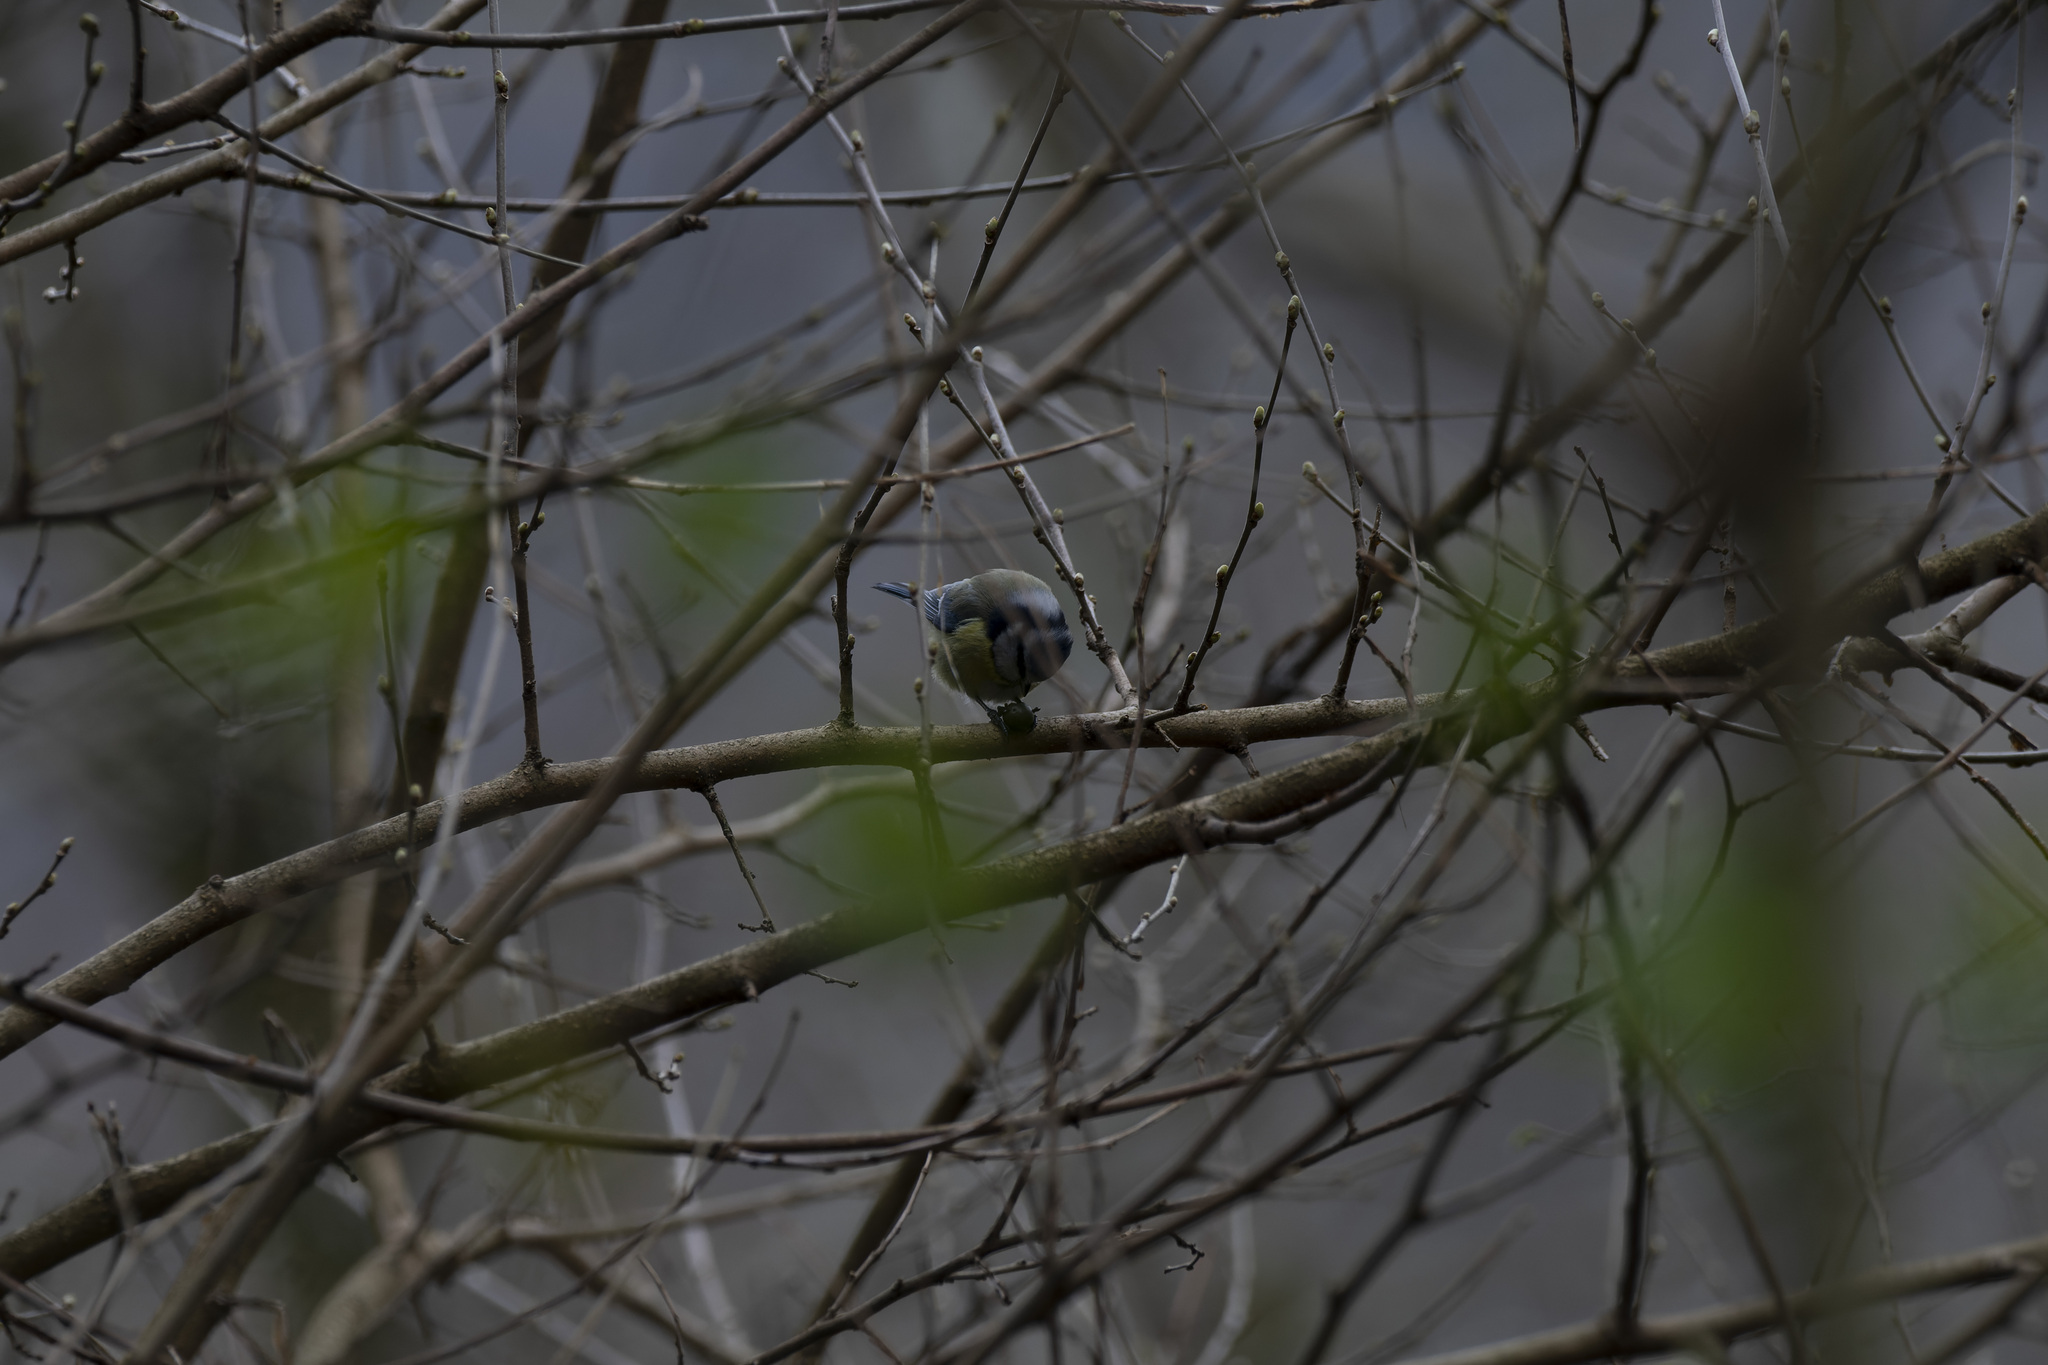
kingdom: Animalia
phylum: Chordata
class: Aves
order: Passeriformes
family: Paridae
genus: Cyanistes
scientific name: Cyanistes caeruleus
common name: Eurasian blue tit
